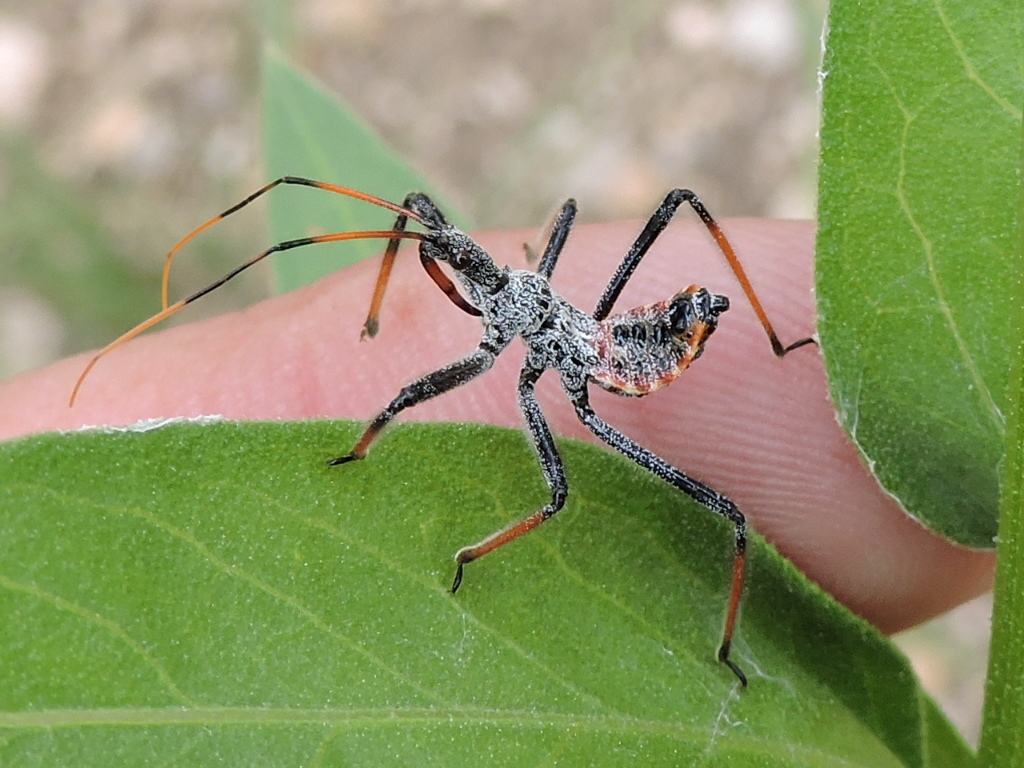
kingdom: Animalia
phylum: Arthropoda
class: Insecta
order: Hemiptera
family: Reduviidae
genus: Arilus
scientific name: Arilus cristatus
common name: North american wheel bug
